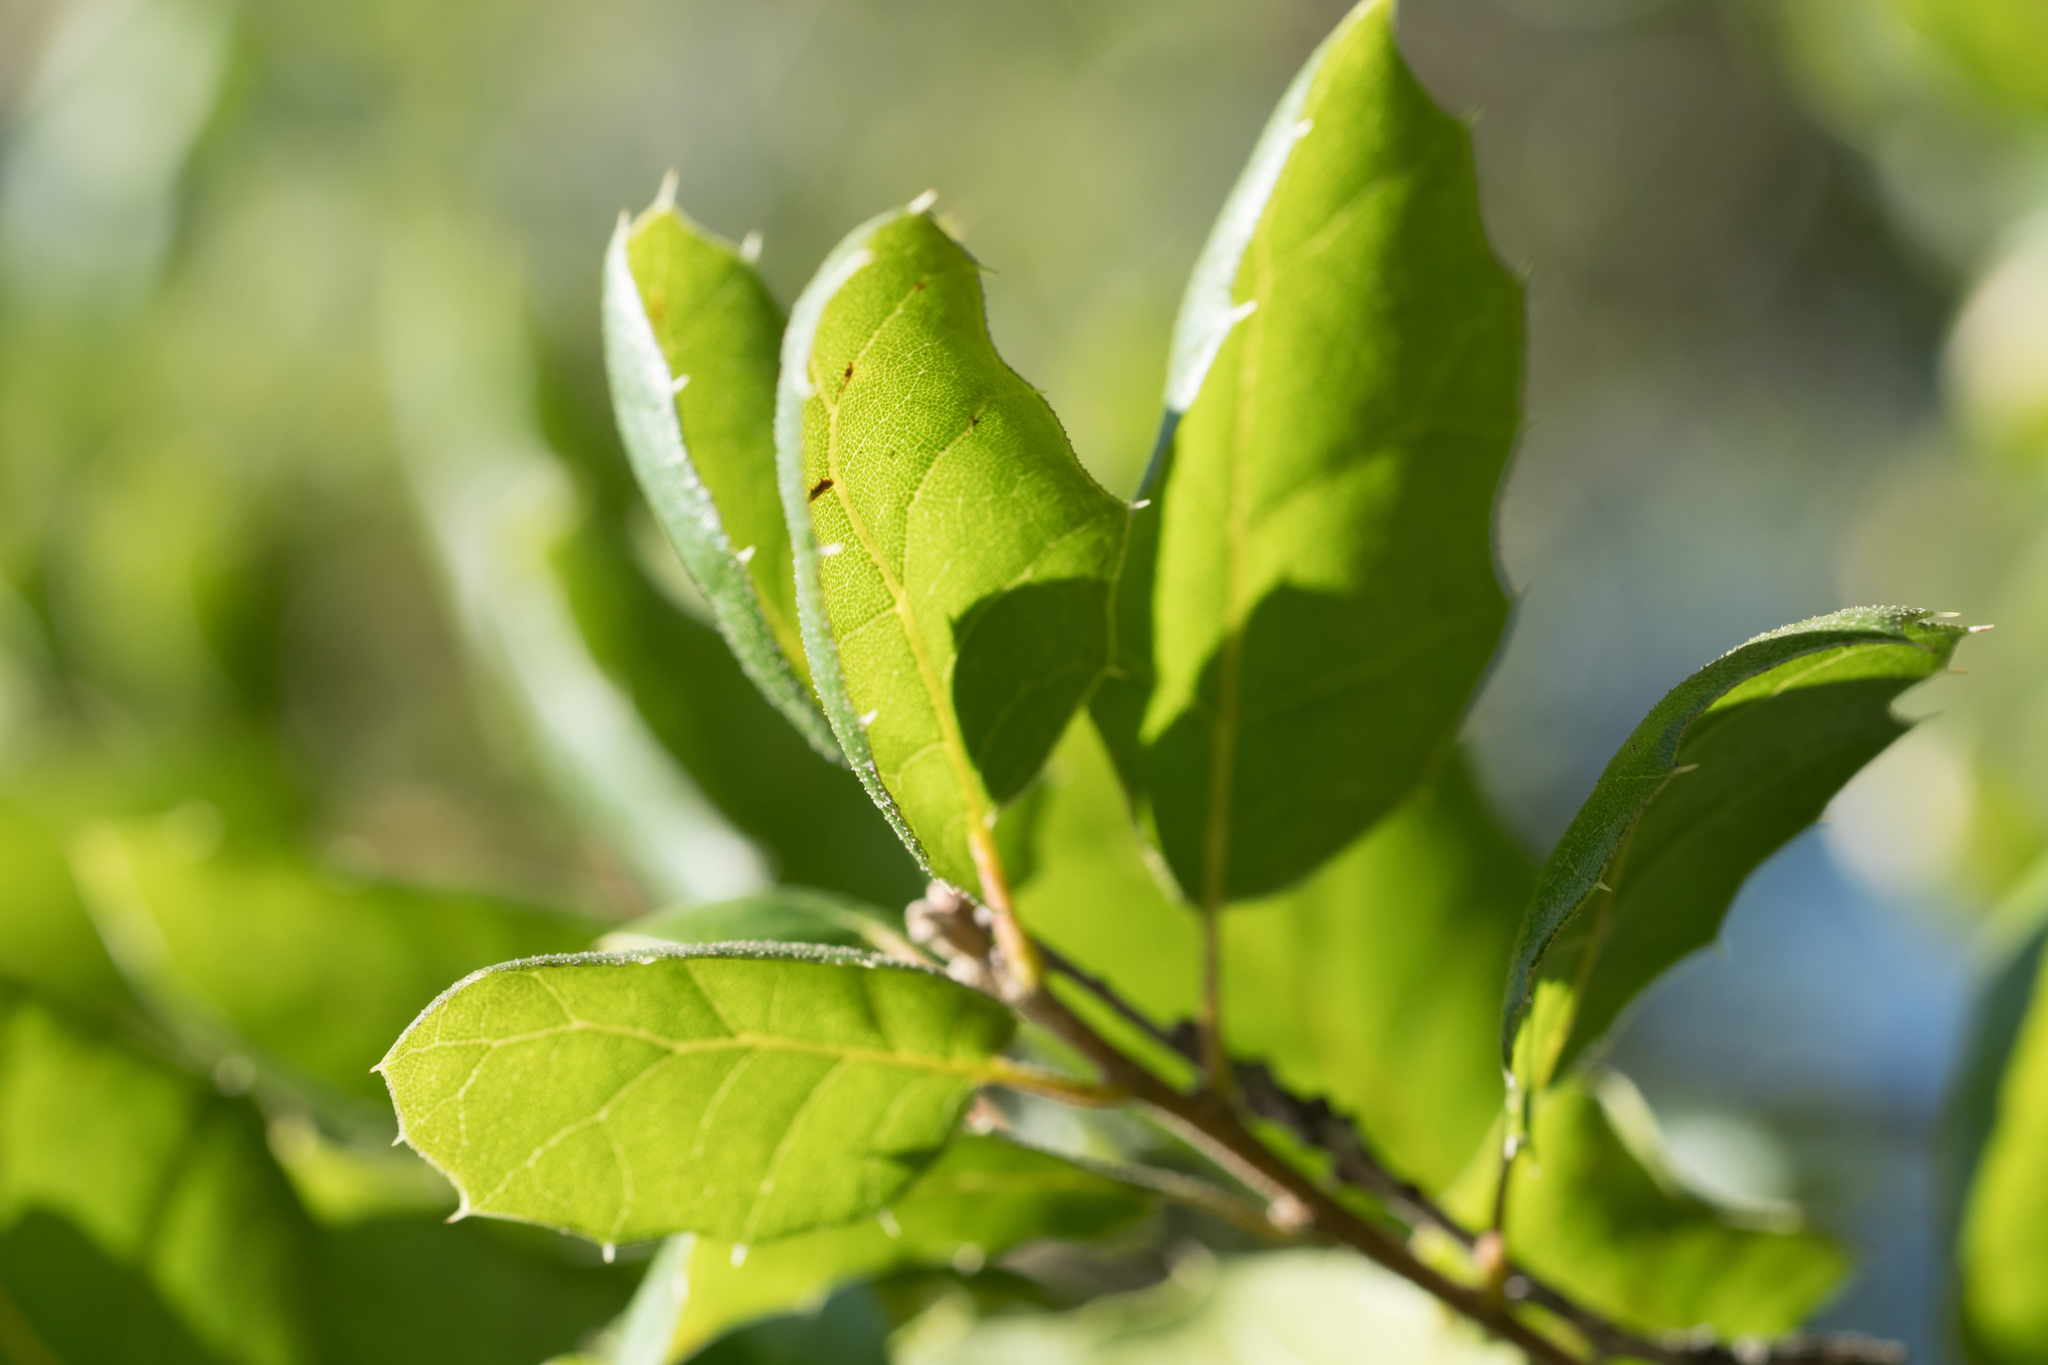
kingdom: Plantae
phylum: Tracheophyta
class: Magnoliopsida
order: Fagales
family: Fagaceae
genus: Quercus
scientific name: Quercus agrifolia
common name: California live oak
